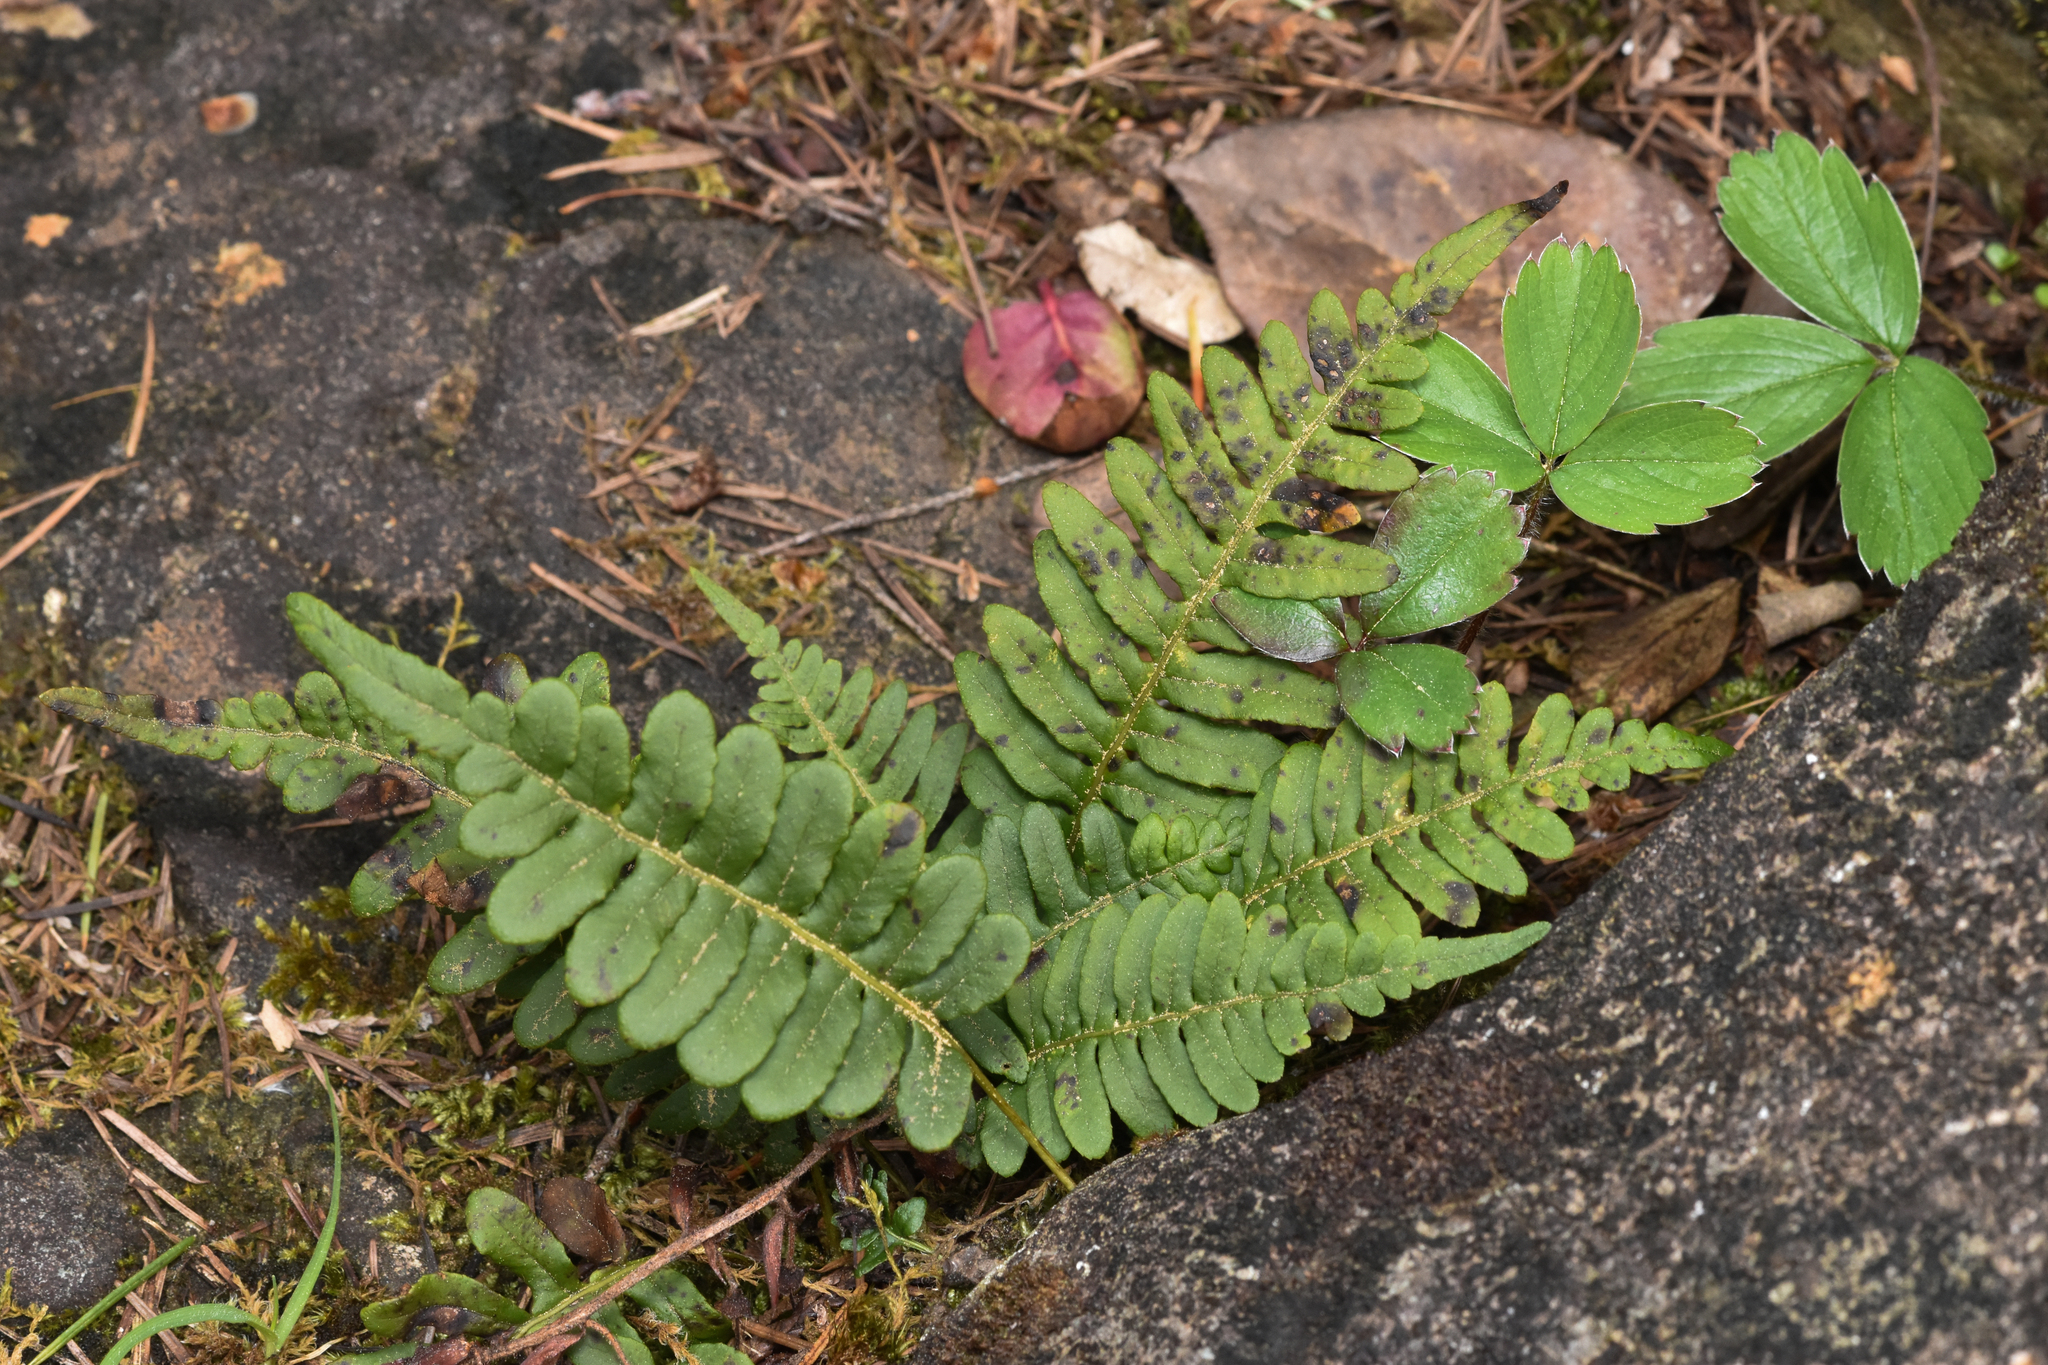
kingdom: Plantae
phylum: Tracheophyta
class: Polypodiopsida
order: Polypodiales
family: Polypodiaceae
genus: Polypodium
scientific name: Polypodium glycyrrhiza
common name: Licorice fern
